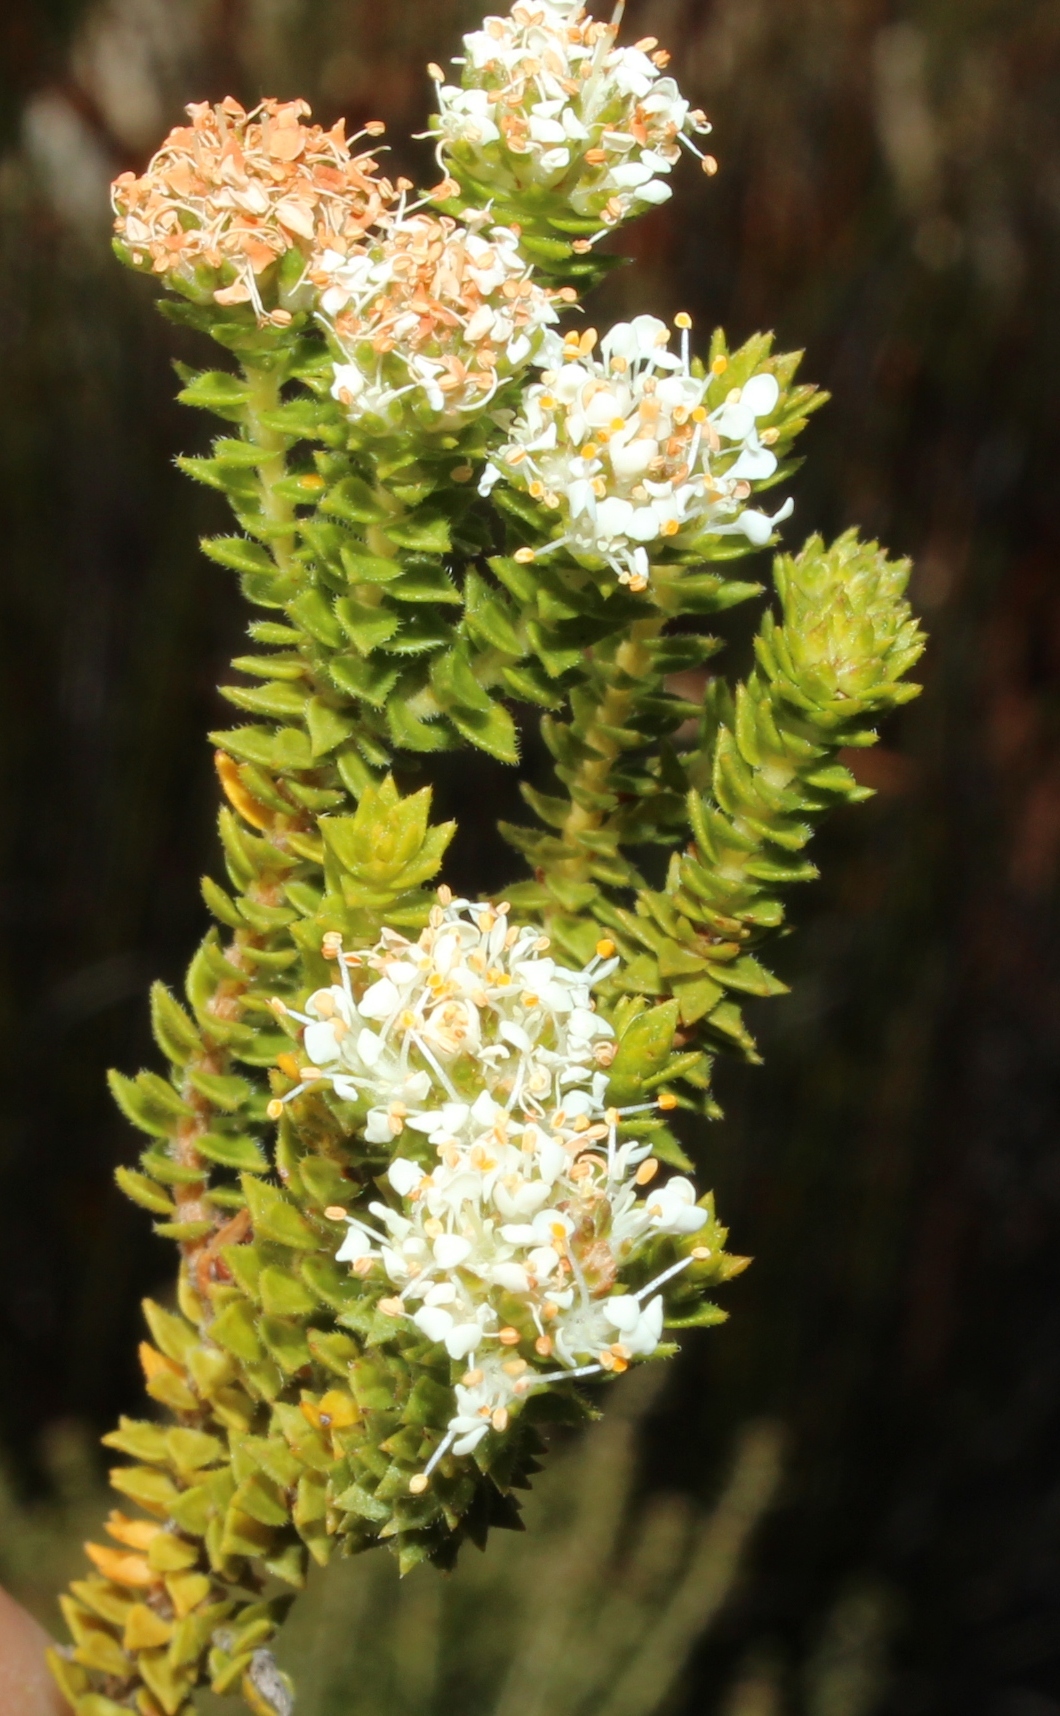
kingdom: Plantae
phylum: Tracheophyta
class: Magnoliopsida
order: Sapindales
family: Rutaceae
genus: Agathosma
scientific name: Agathosma imbricata
